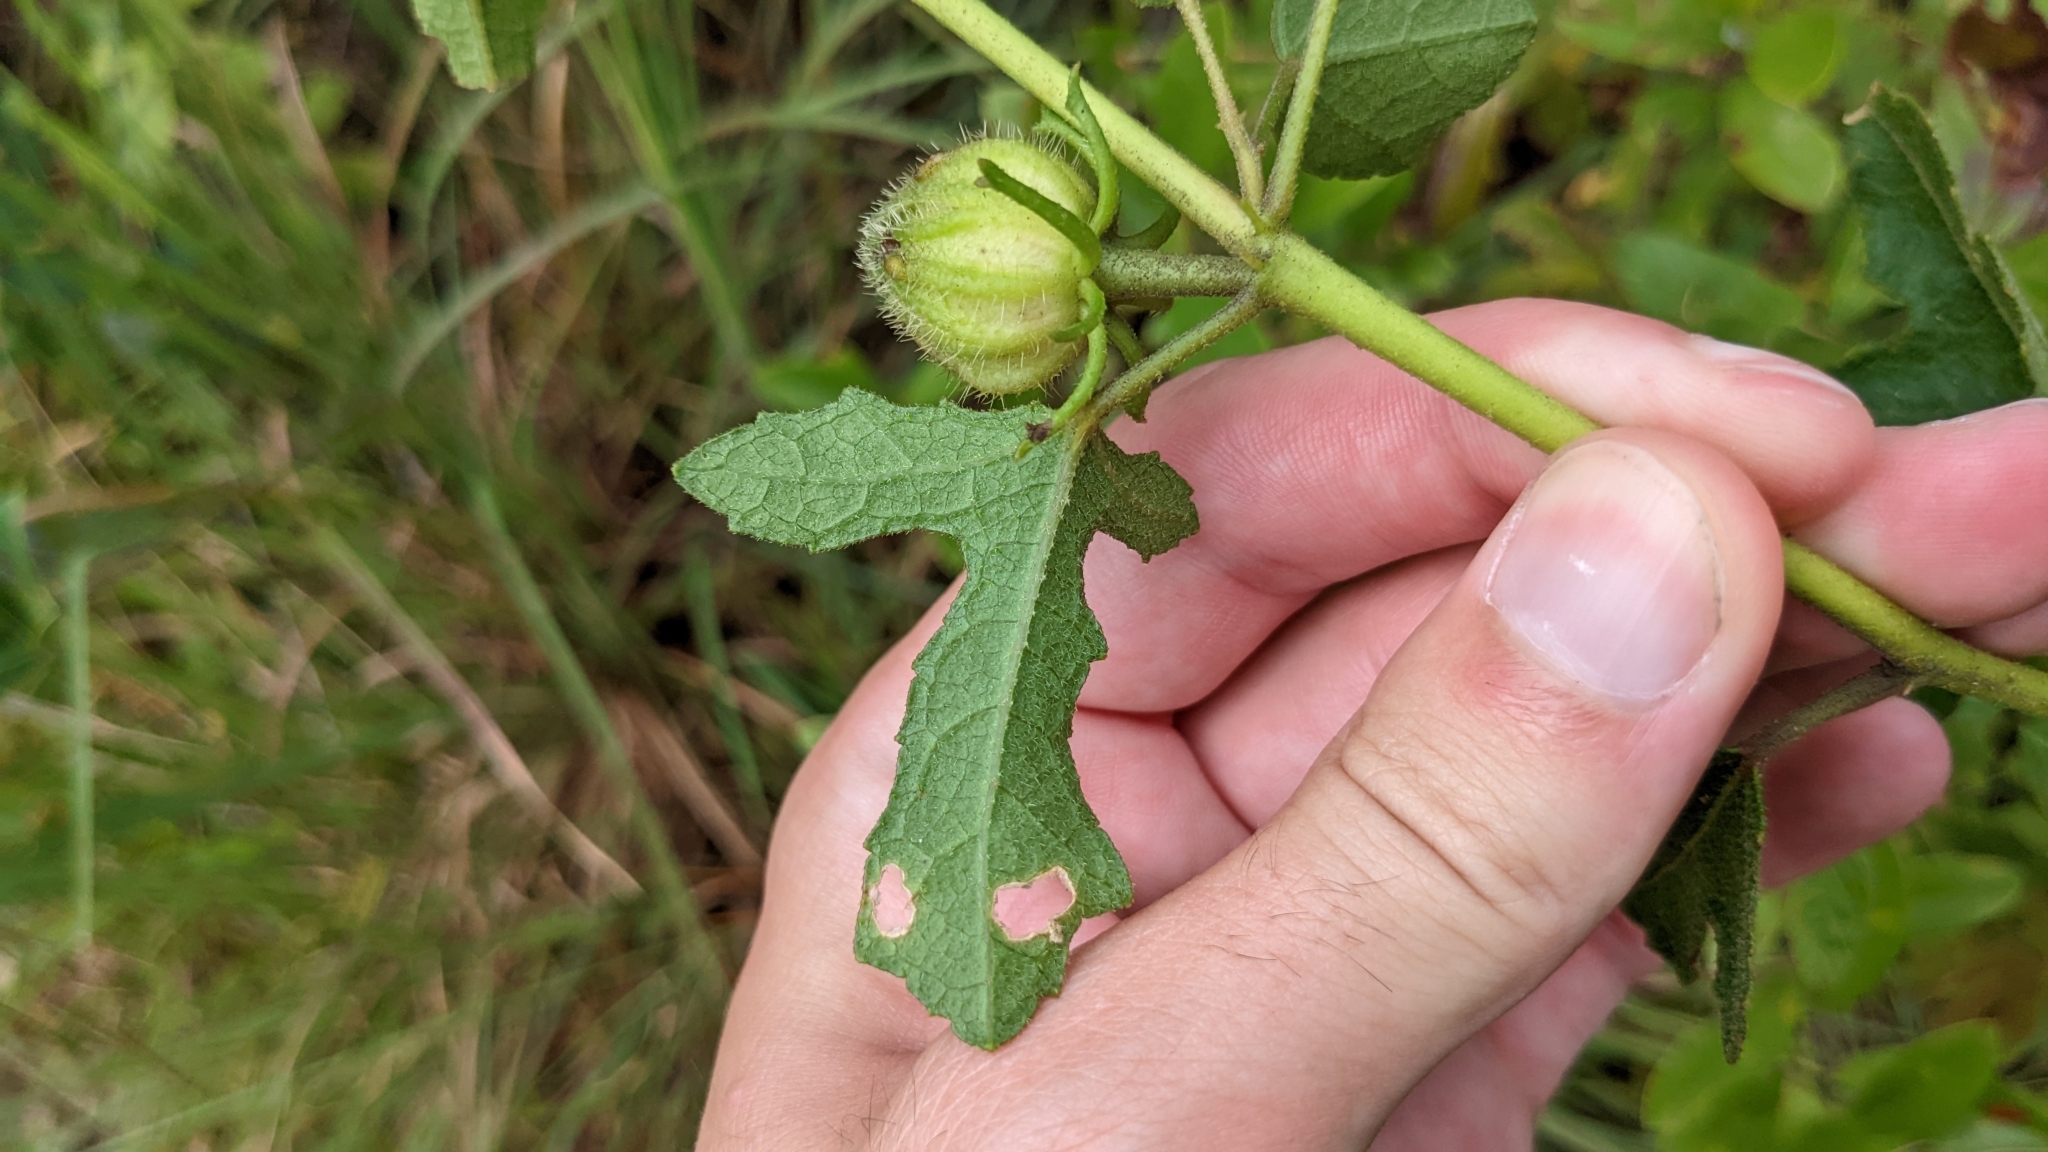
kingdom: Plantae
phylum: Tracheophyta
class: Magnoliopsida
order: Malvales
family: Malvaceae
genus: Hibiscus
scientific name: Hibiscus aculeatus
